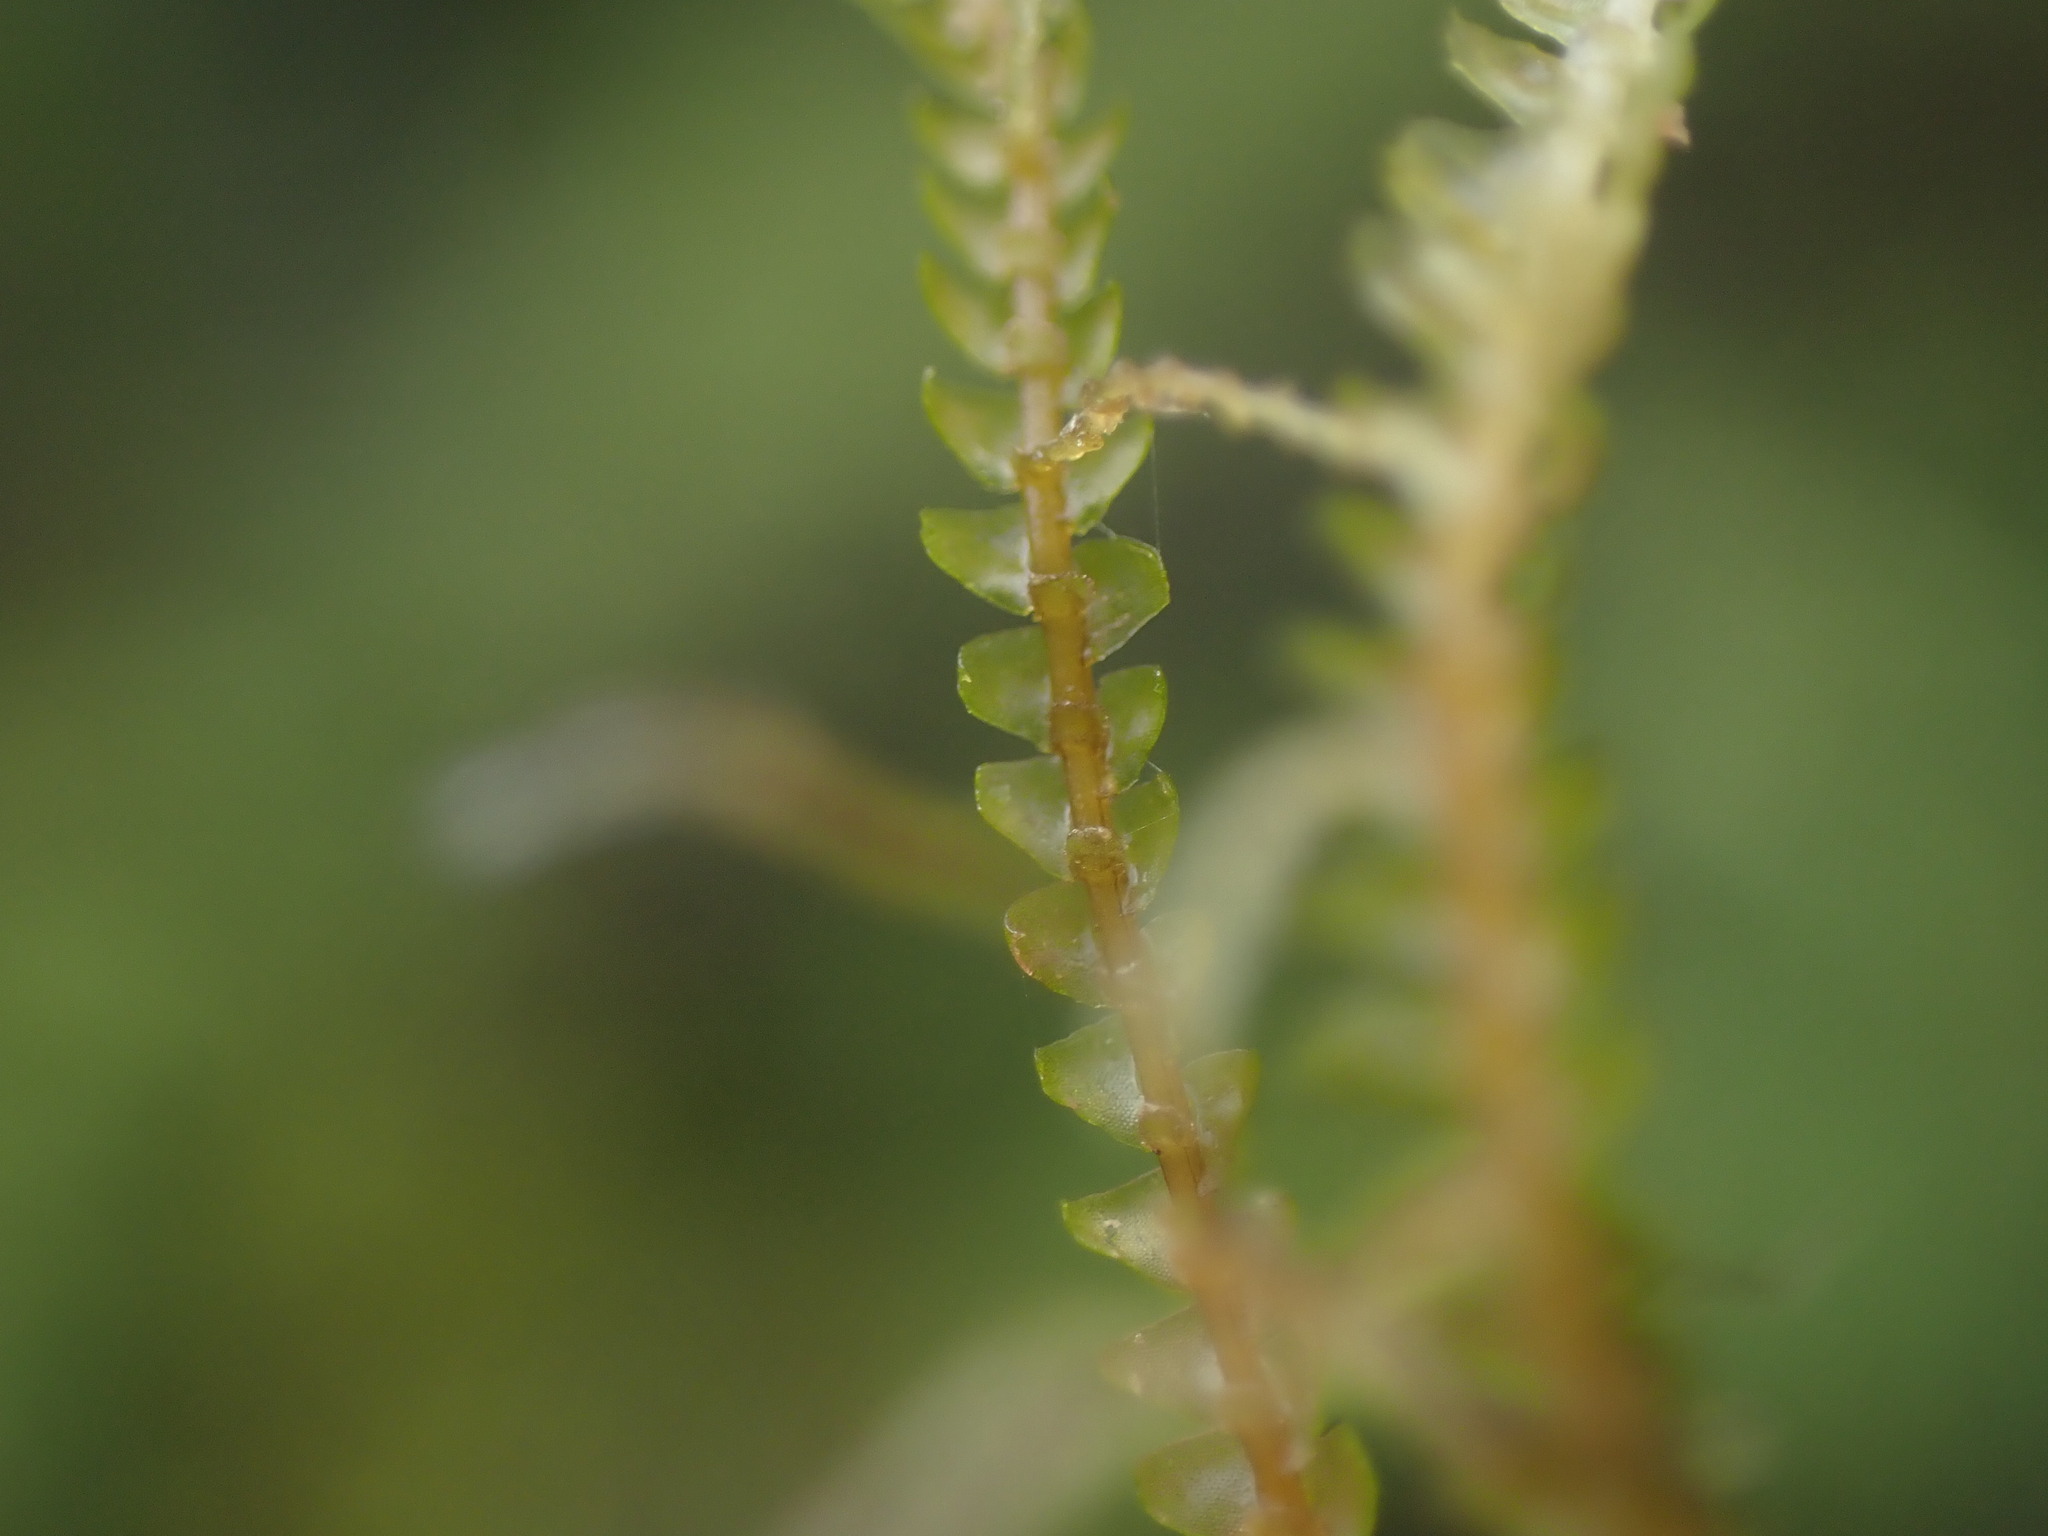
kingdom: Plantae
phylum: Marchantiophyta
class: Jungermanniopsida
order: Jungermanniales
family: Lepidoziaceae
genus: Bazzania
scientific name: Bazzania tricrenata
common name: Lesser whipwort
